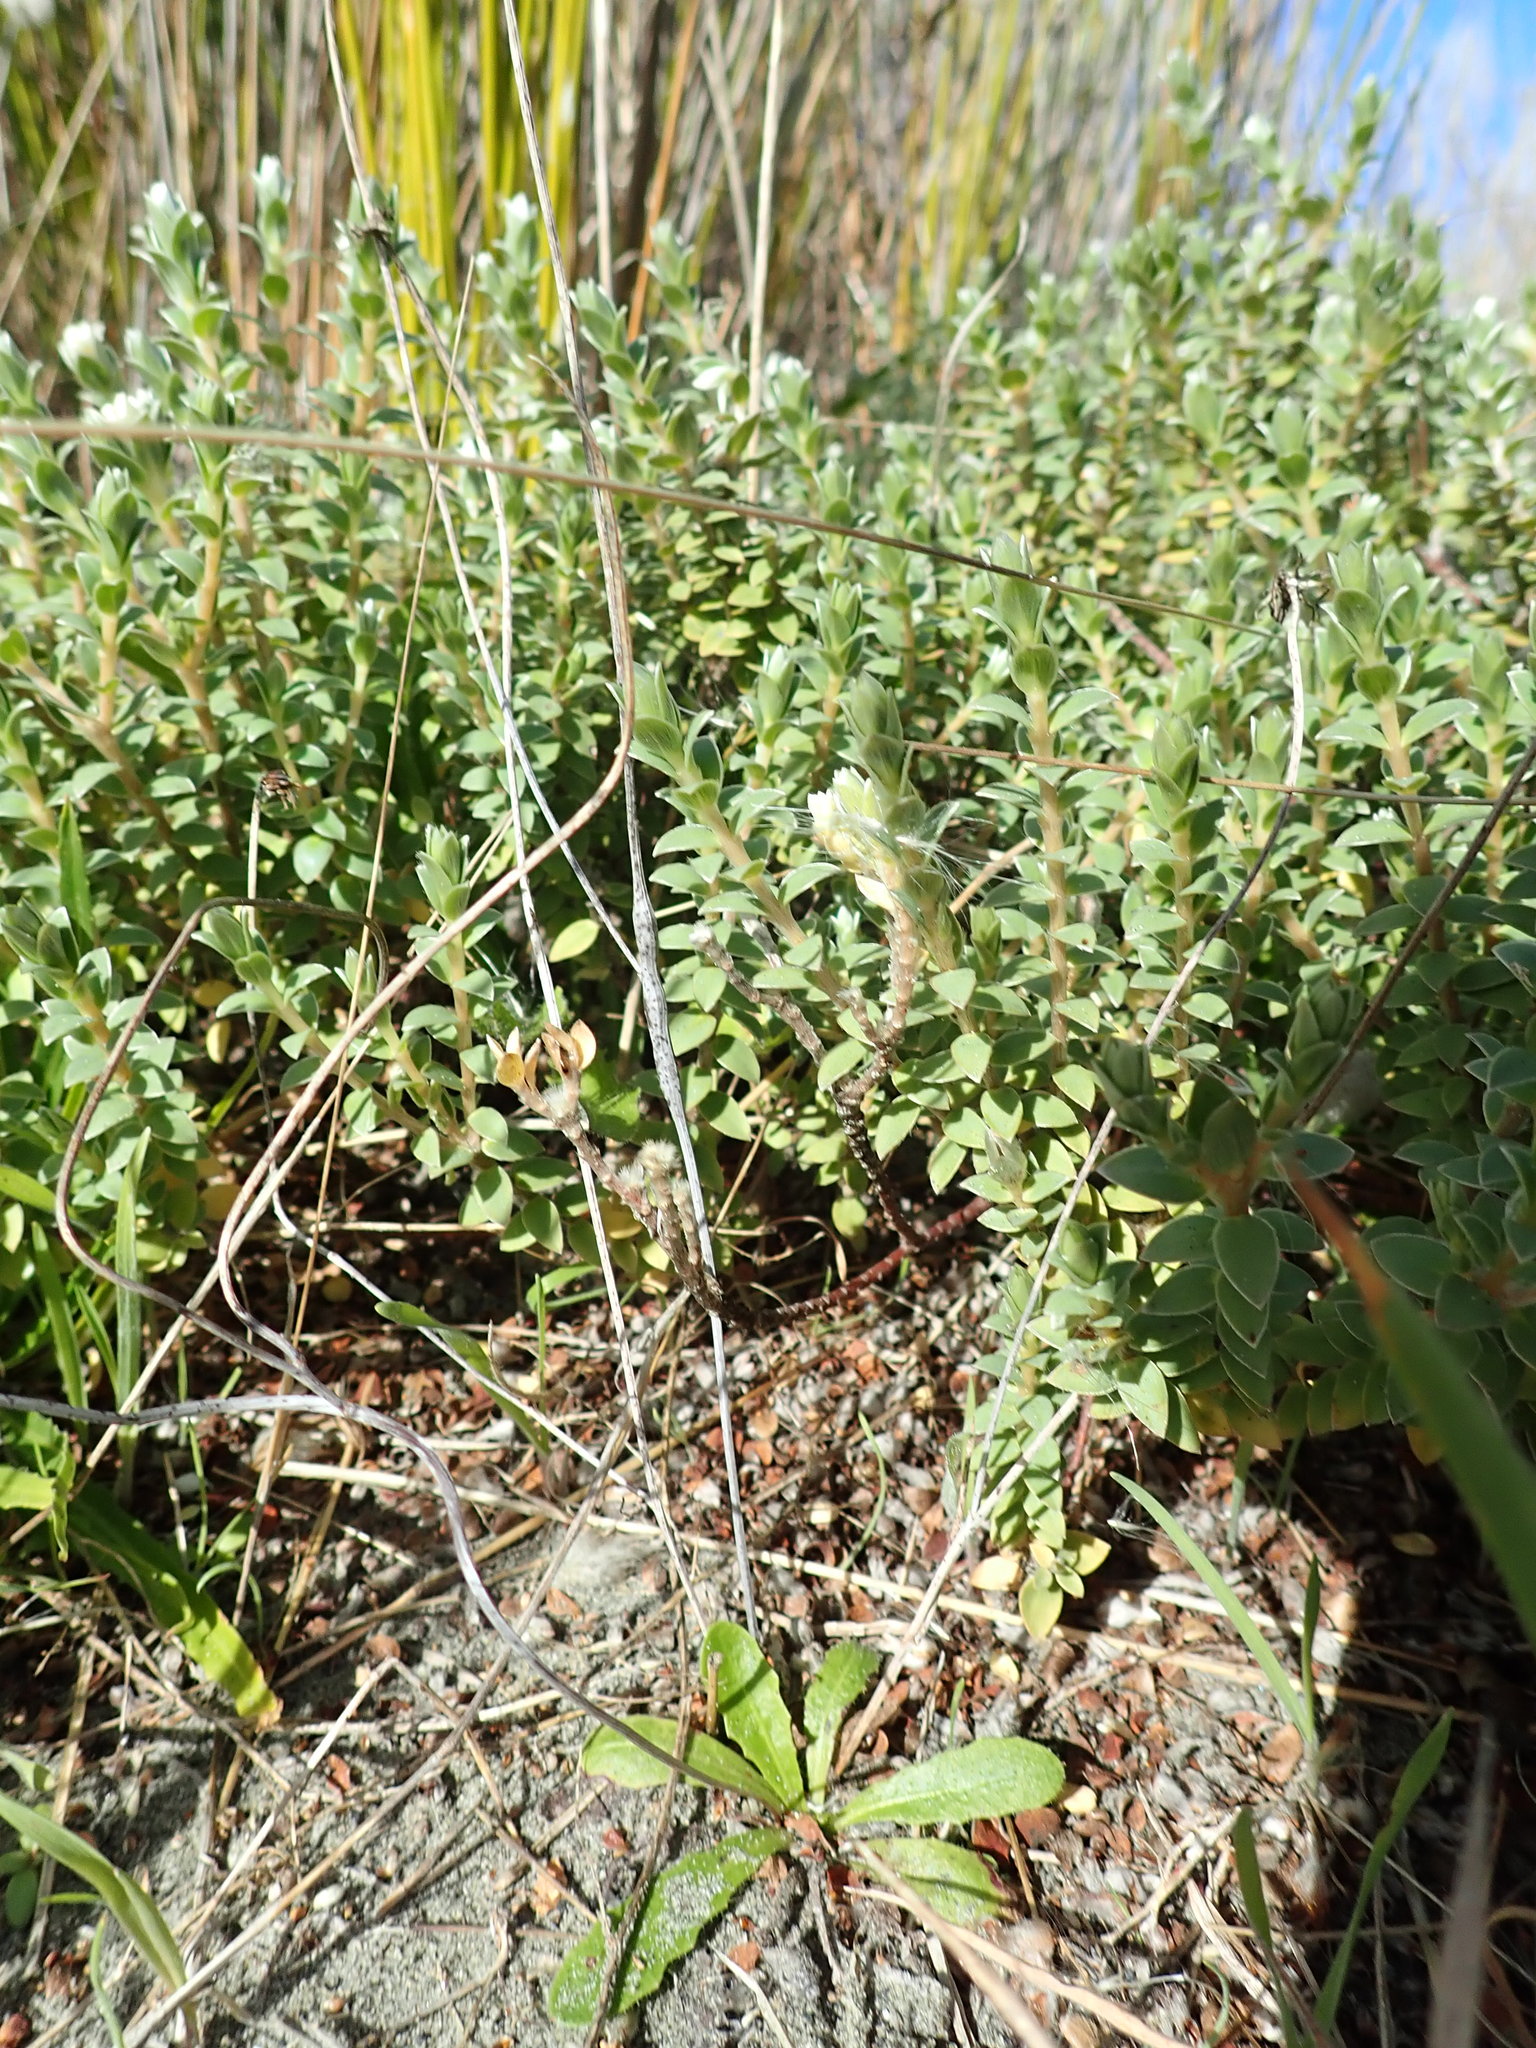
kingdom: Plantae
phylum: Tracheophyta
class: Magnoliopsida
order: Malvales
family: Thymelaeaceae
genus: Pimelea
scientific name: Pimelea villosa
